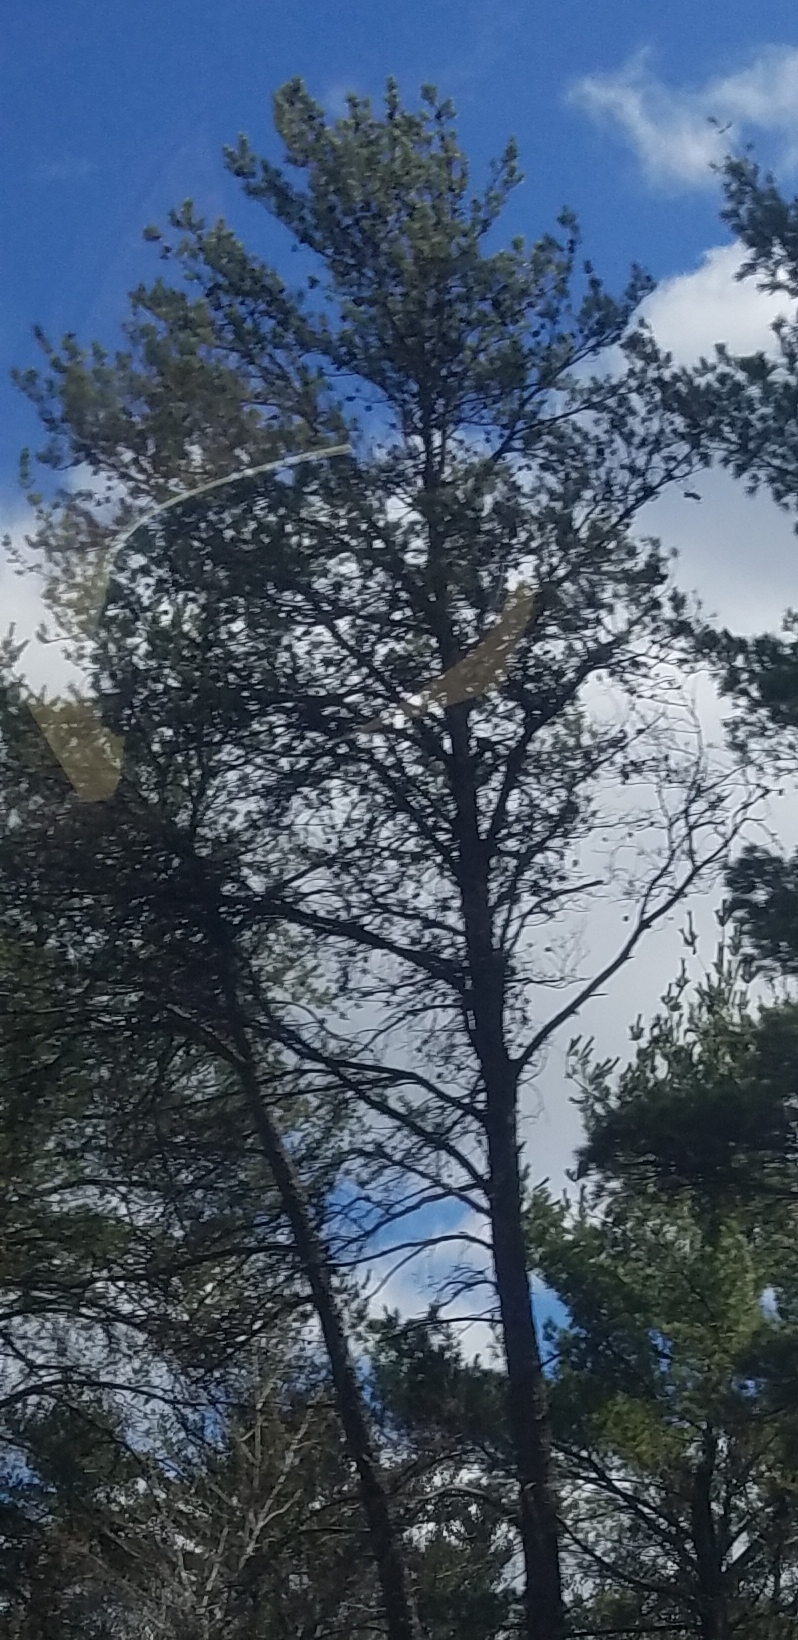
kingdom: Plantae
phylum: Tracheophyta
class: Pinopsida
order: Pinales
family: Pinaceae
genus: Pinus
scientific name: Pinus strobus
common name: Weymouth pine
